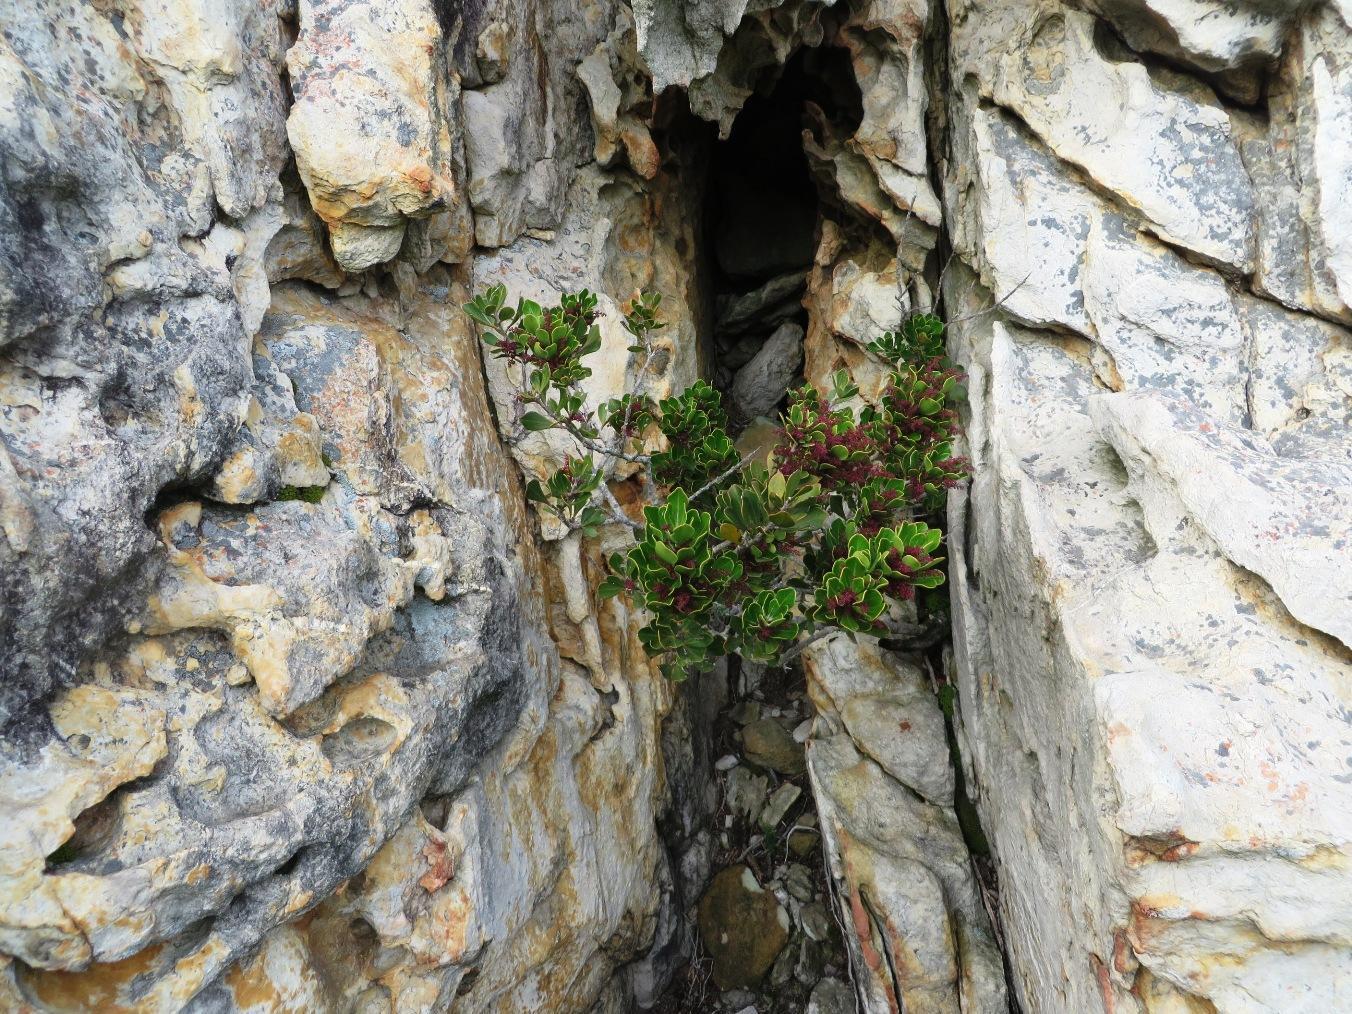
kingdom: Plantae
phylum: Tracheophyta
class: Magnoliopsida
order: Sapindales
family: Anacardiaceae
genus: Searsia
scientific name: Searsia scytophylla
